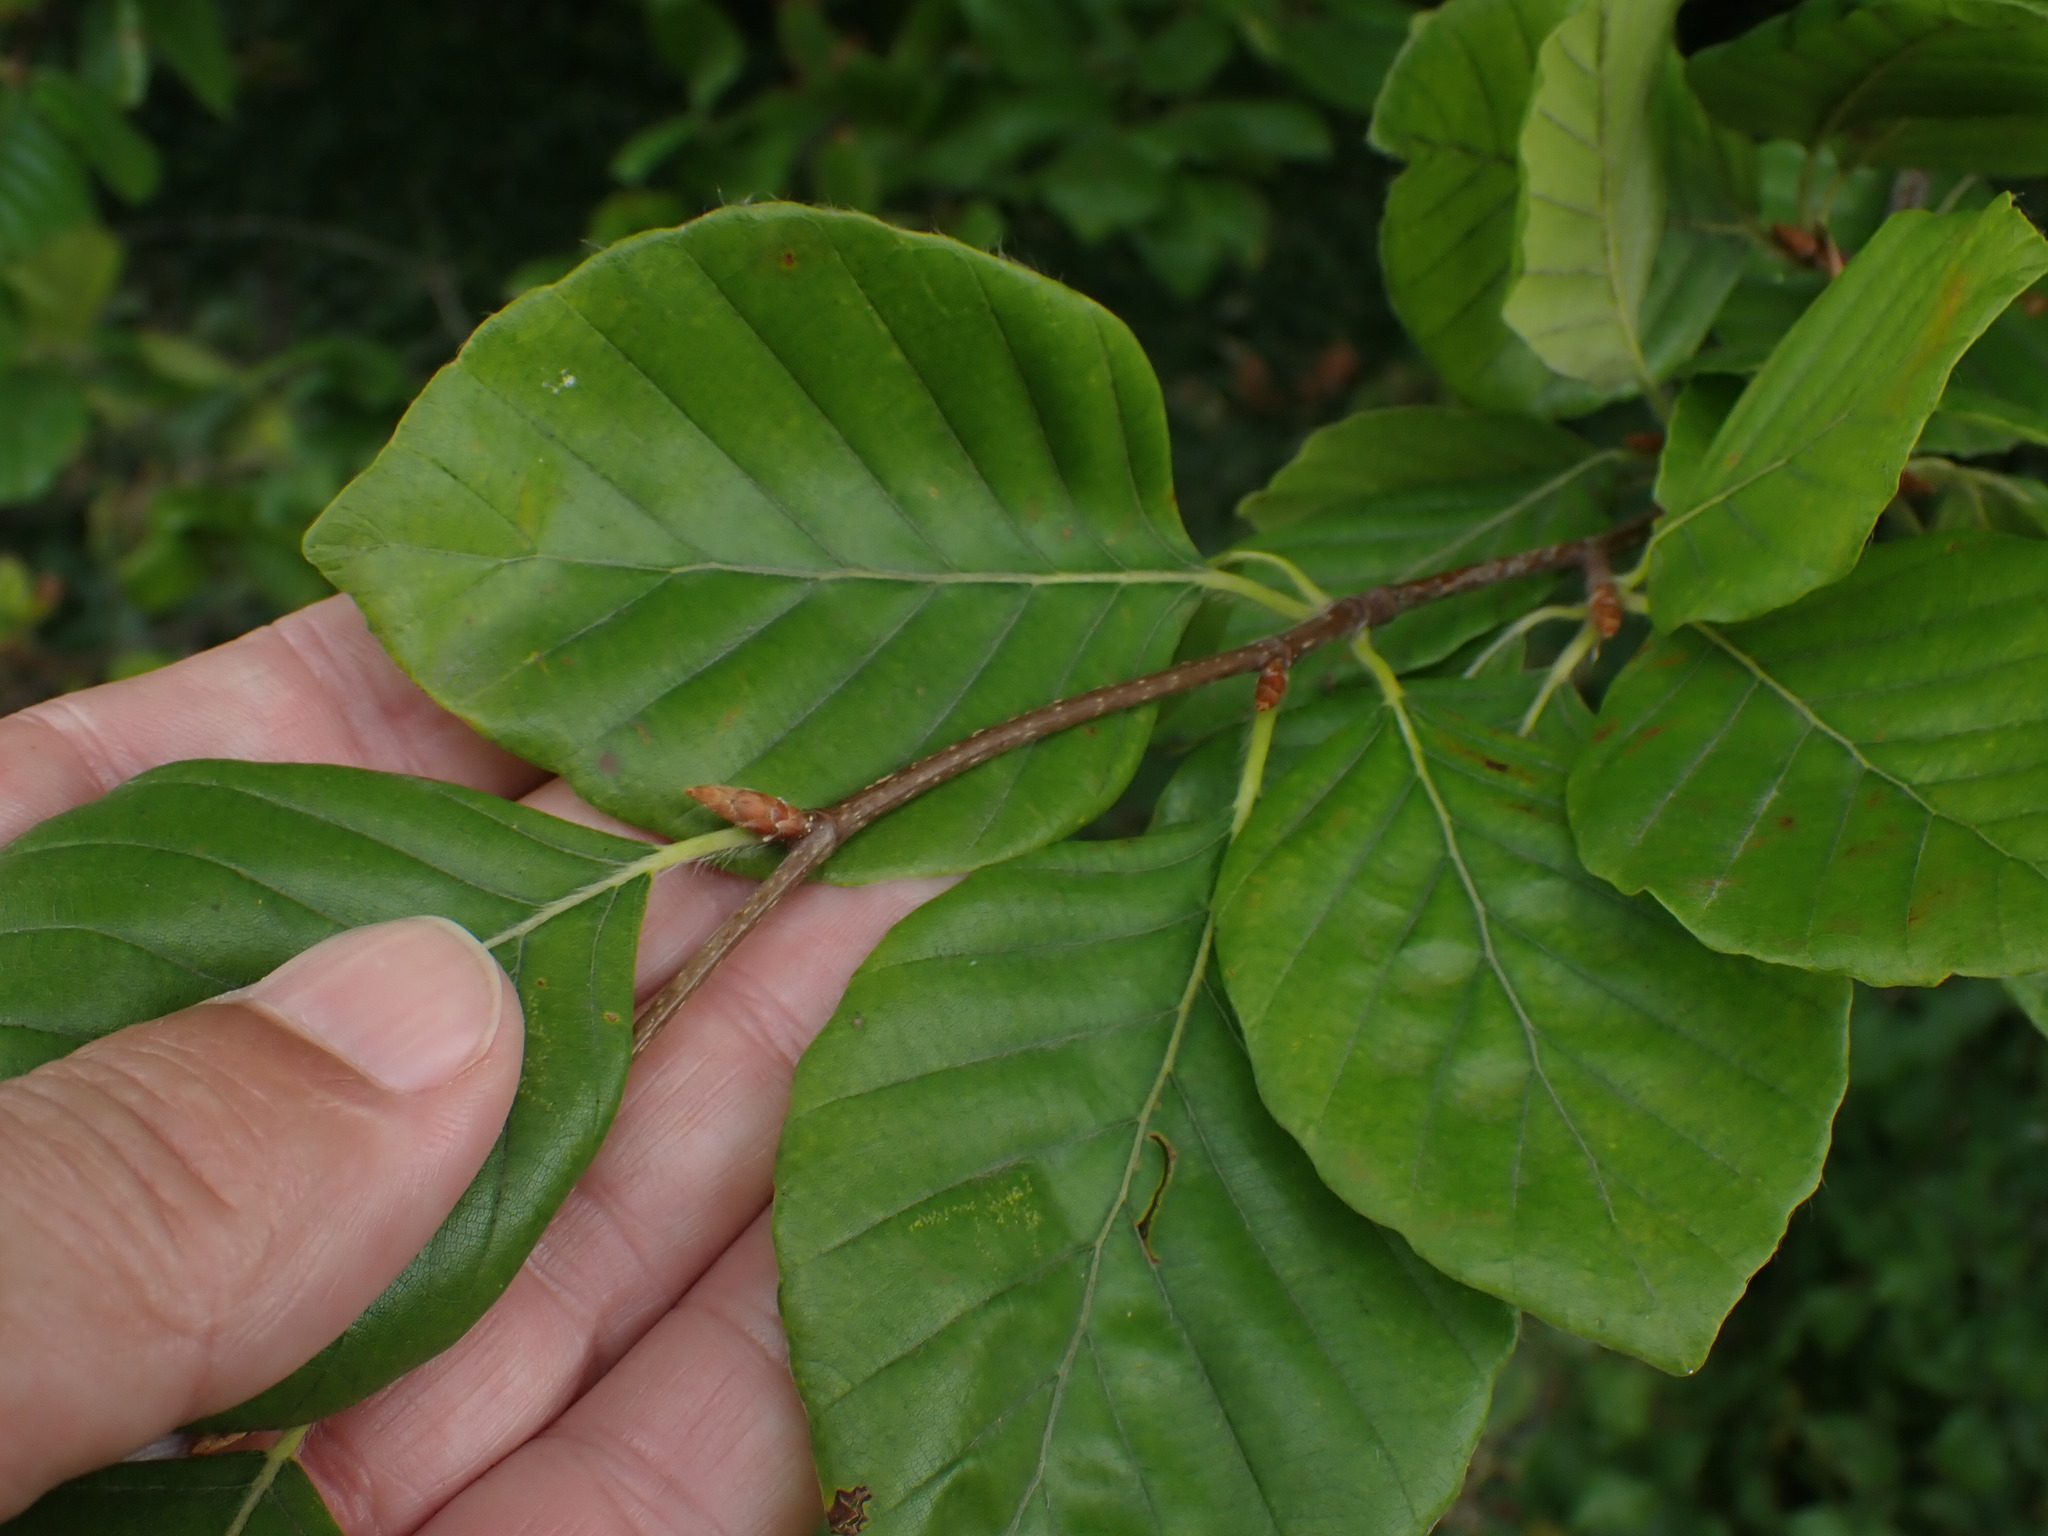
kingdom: Plantae
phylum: Tracheophyta
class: Magnoliopsida
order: Fagales
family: Fagaceae
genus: Fagus
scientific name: Fagus sylvatica
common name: Beech
